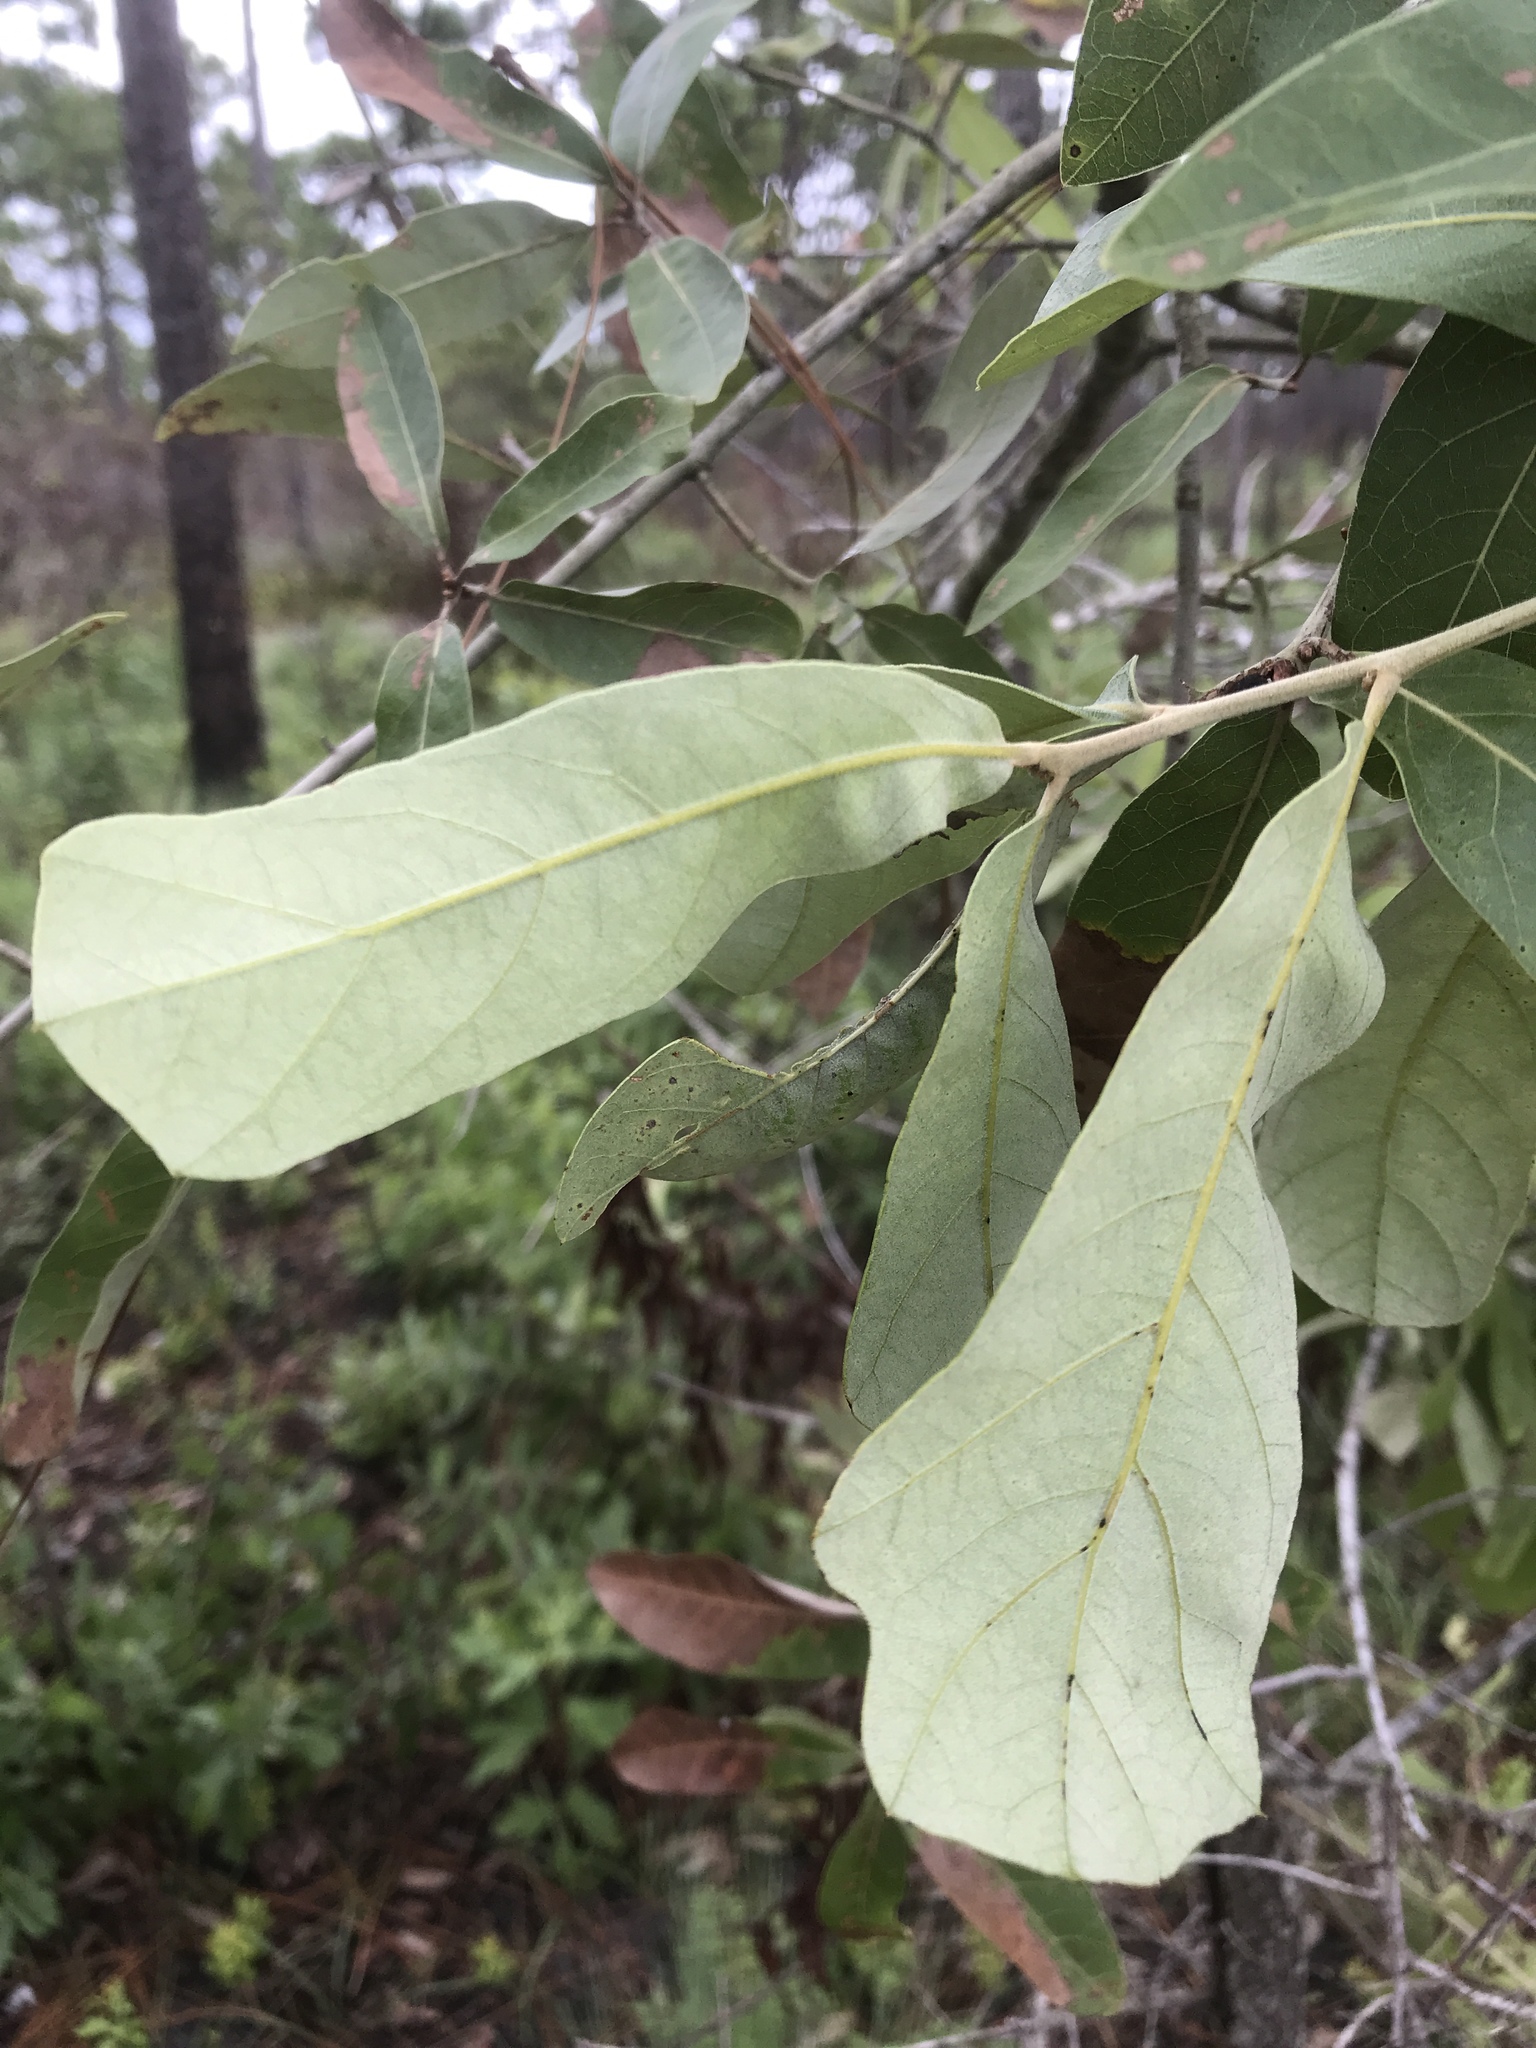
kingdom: Plantae
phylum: Tracheophyta
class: Magnoliopsida
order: Fagales
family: Fagaceae
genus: Quercus
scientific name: Quercus incana
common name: Bluejack oak
